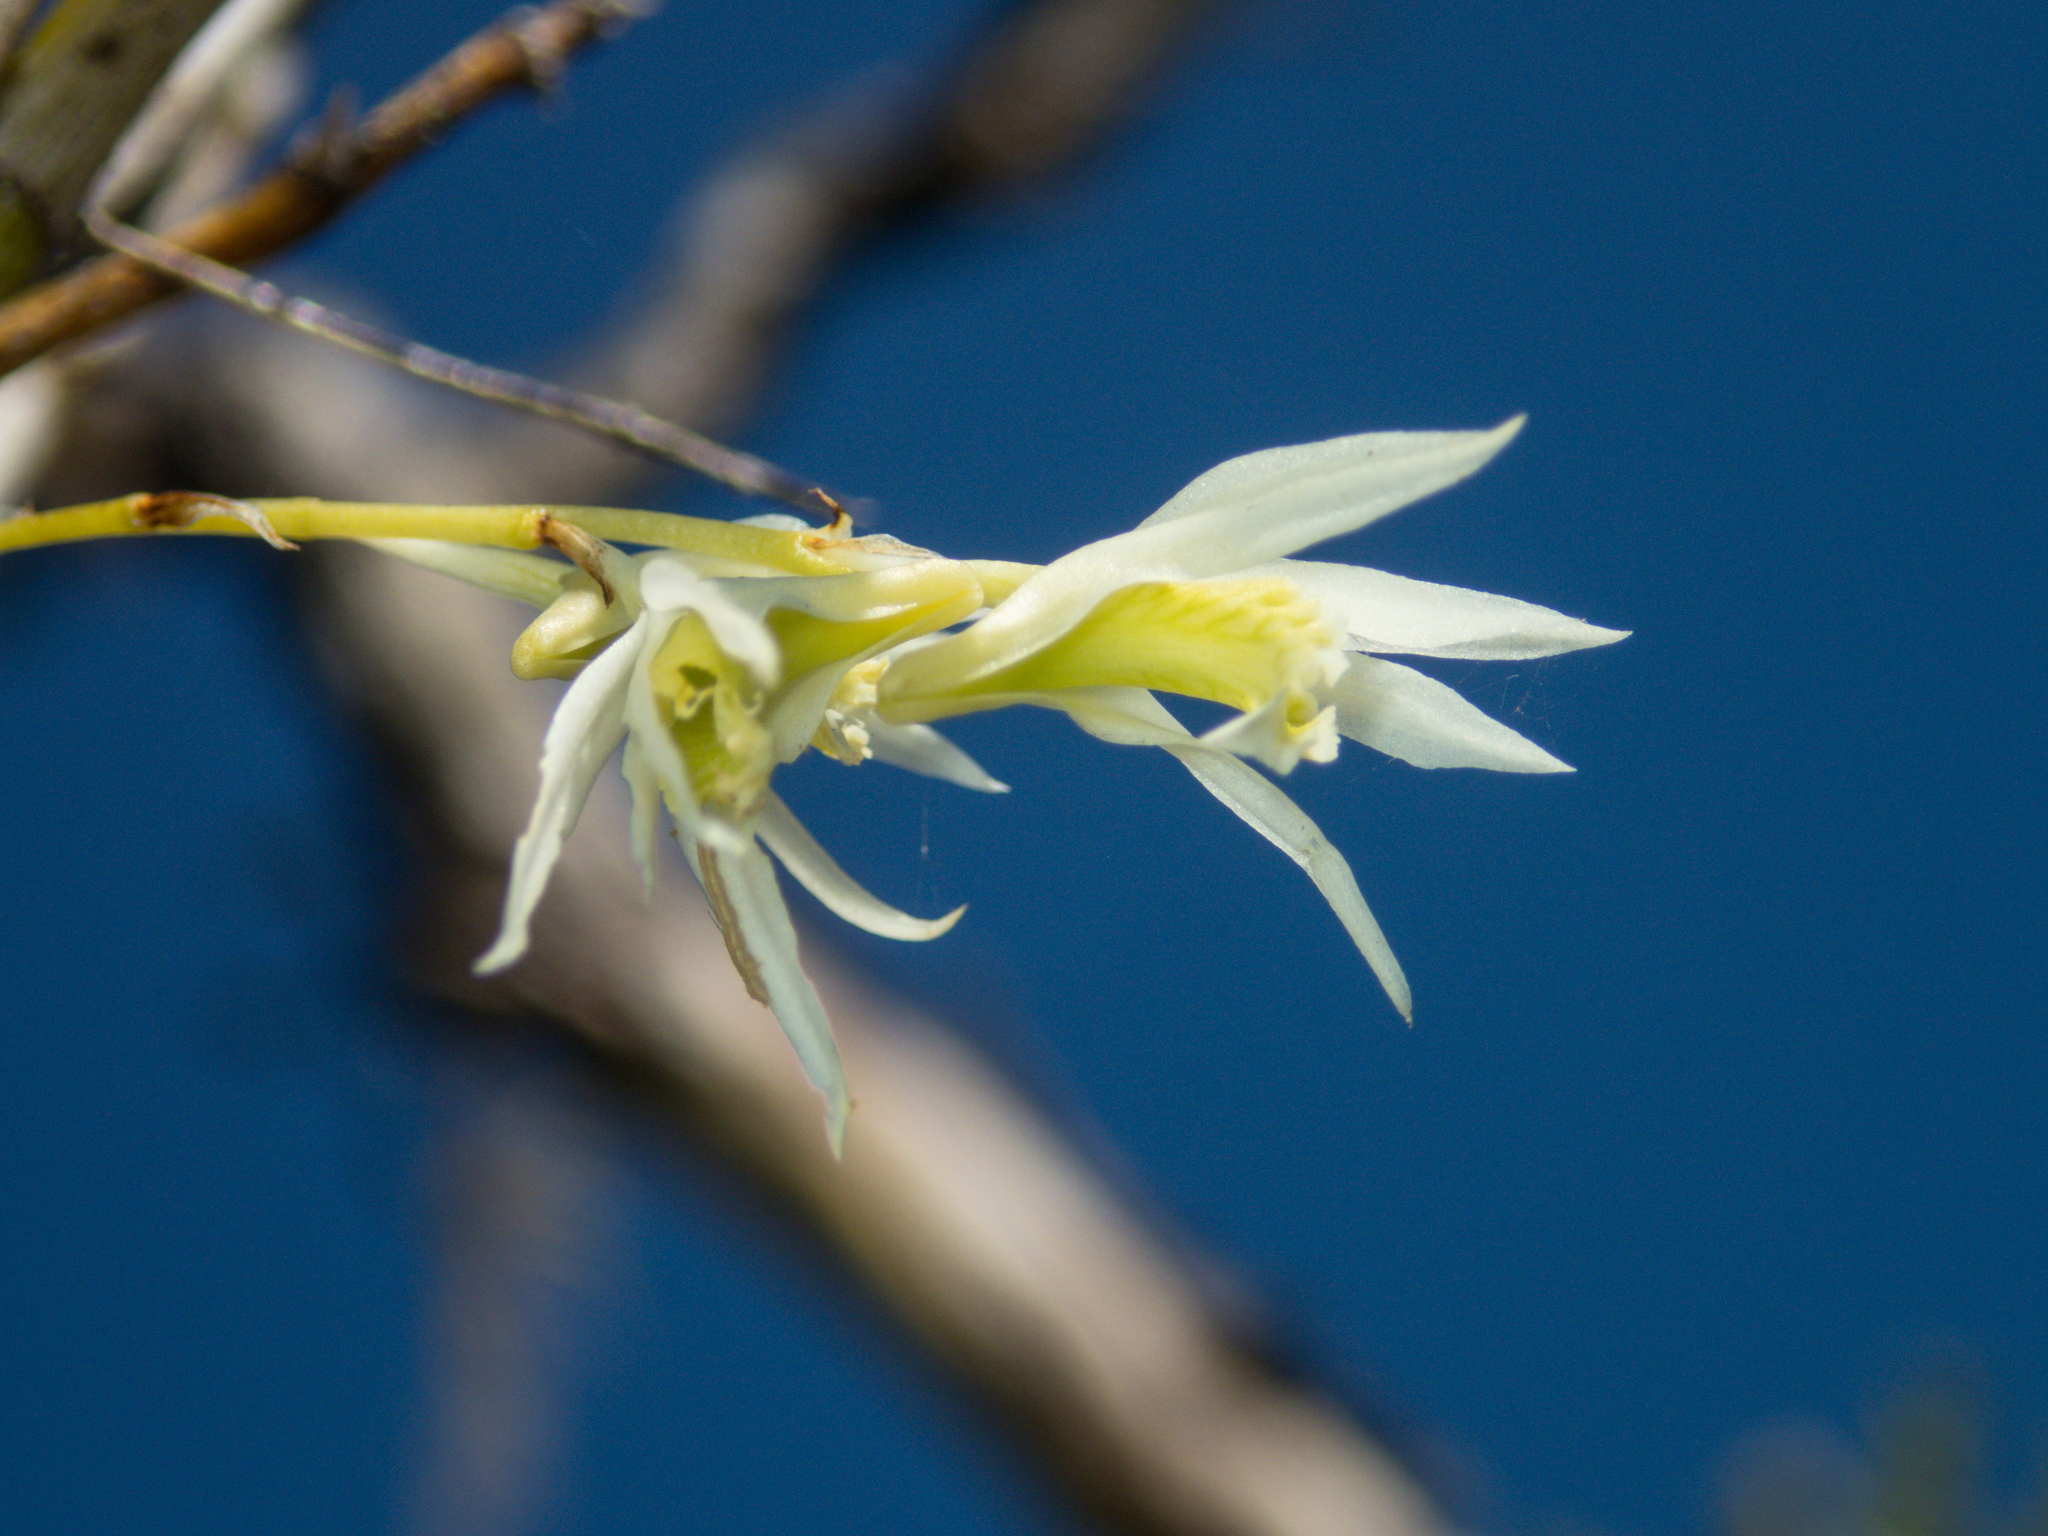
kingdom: Plantae
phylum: Tracheophyta
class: Liliopsida
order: Asparagales
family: Orchidaceae
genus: Dendrobium
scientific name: Dendrobium kratense
